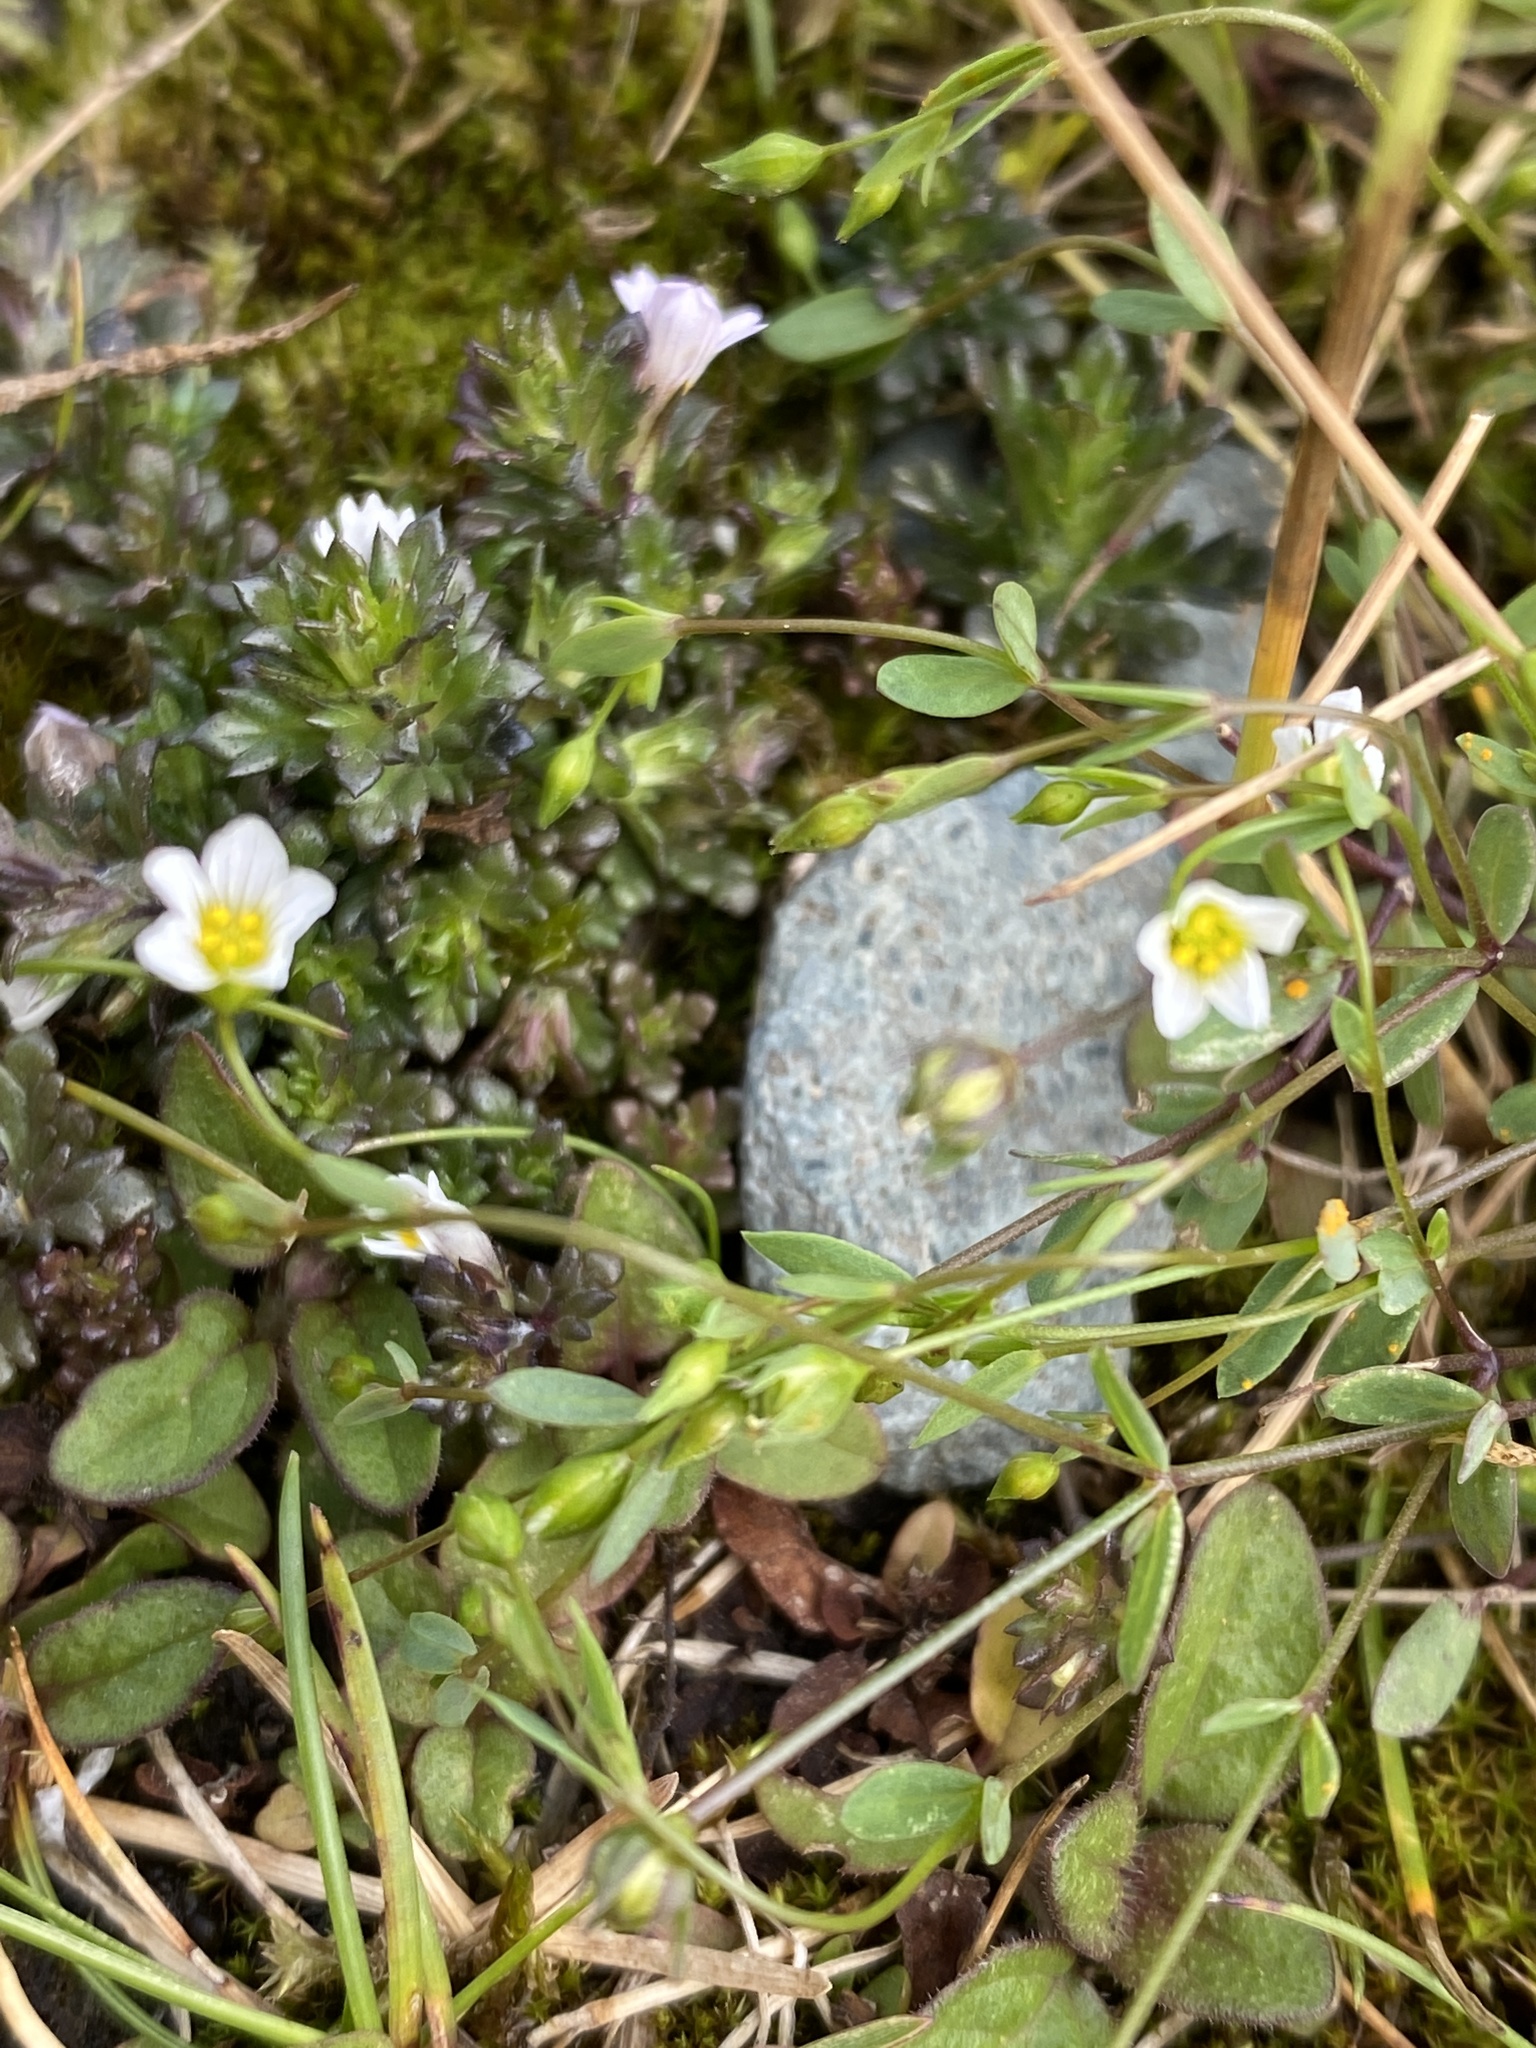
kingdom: Plantae
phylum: Tracheophyta
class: Magnoliopsida
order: Malpighiales
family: Linaceae
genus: Linum
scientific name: Linum catharticum
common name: Fairy flax
